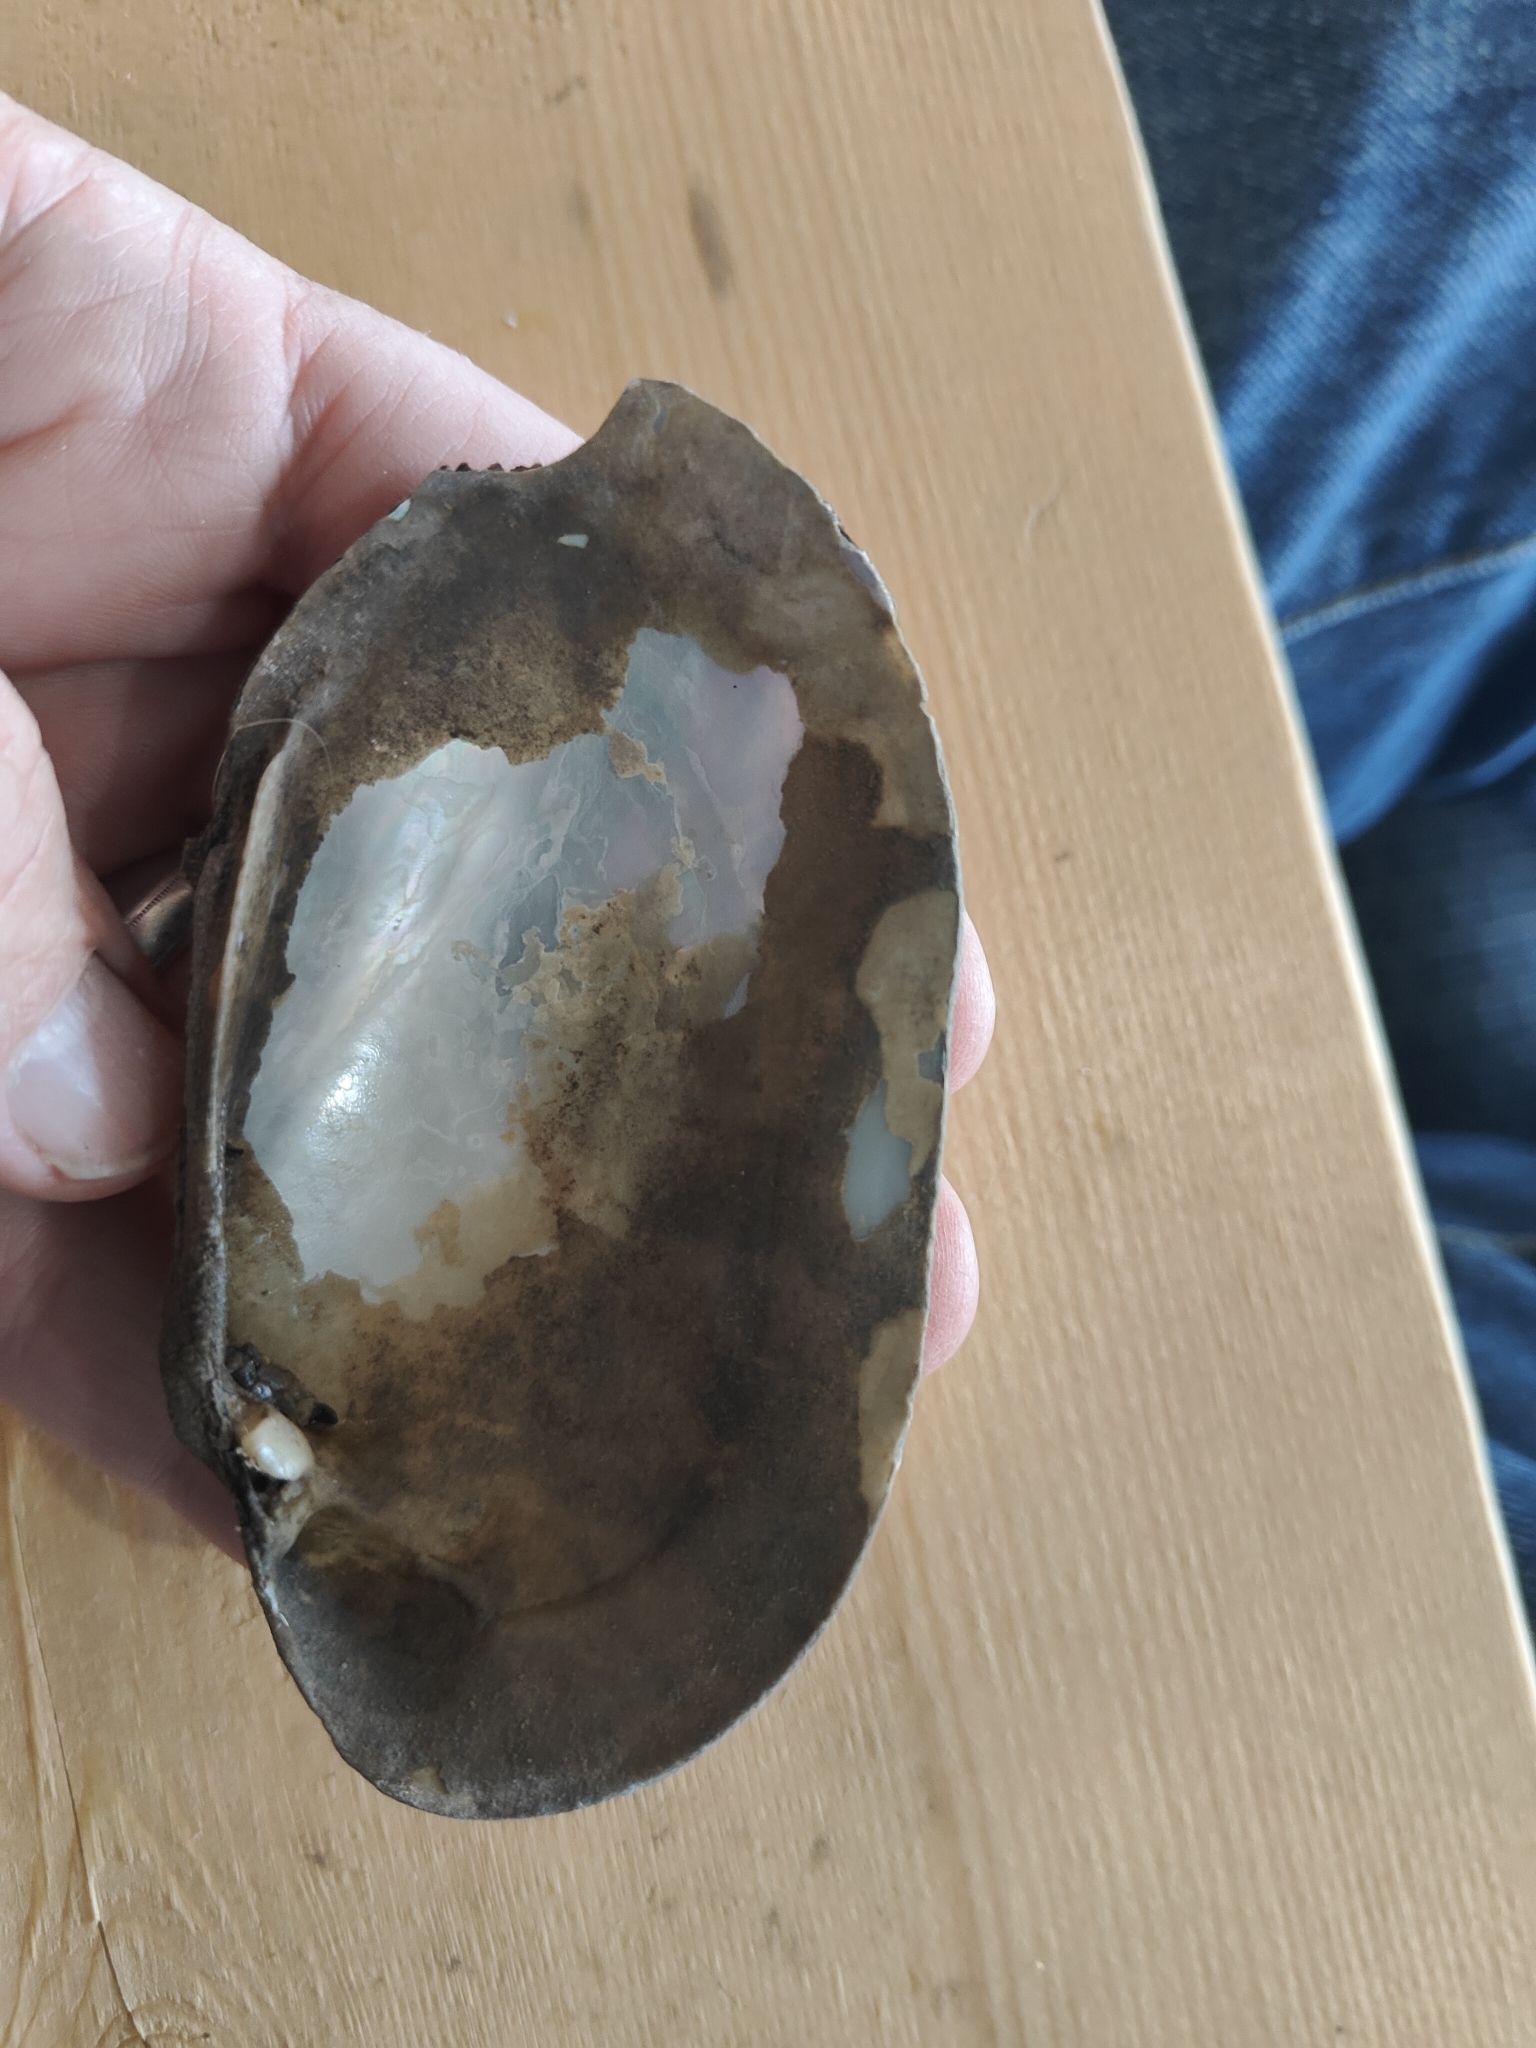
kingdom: Animalia
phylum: Mollusca
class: Bivalvia
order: Unionida
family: Unionidae
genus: Lampsilis
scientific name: Lampsilis siliquoidea
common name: Fatmucket
